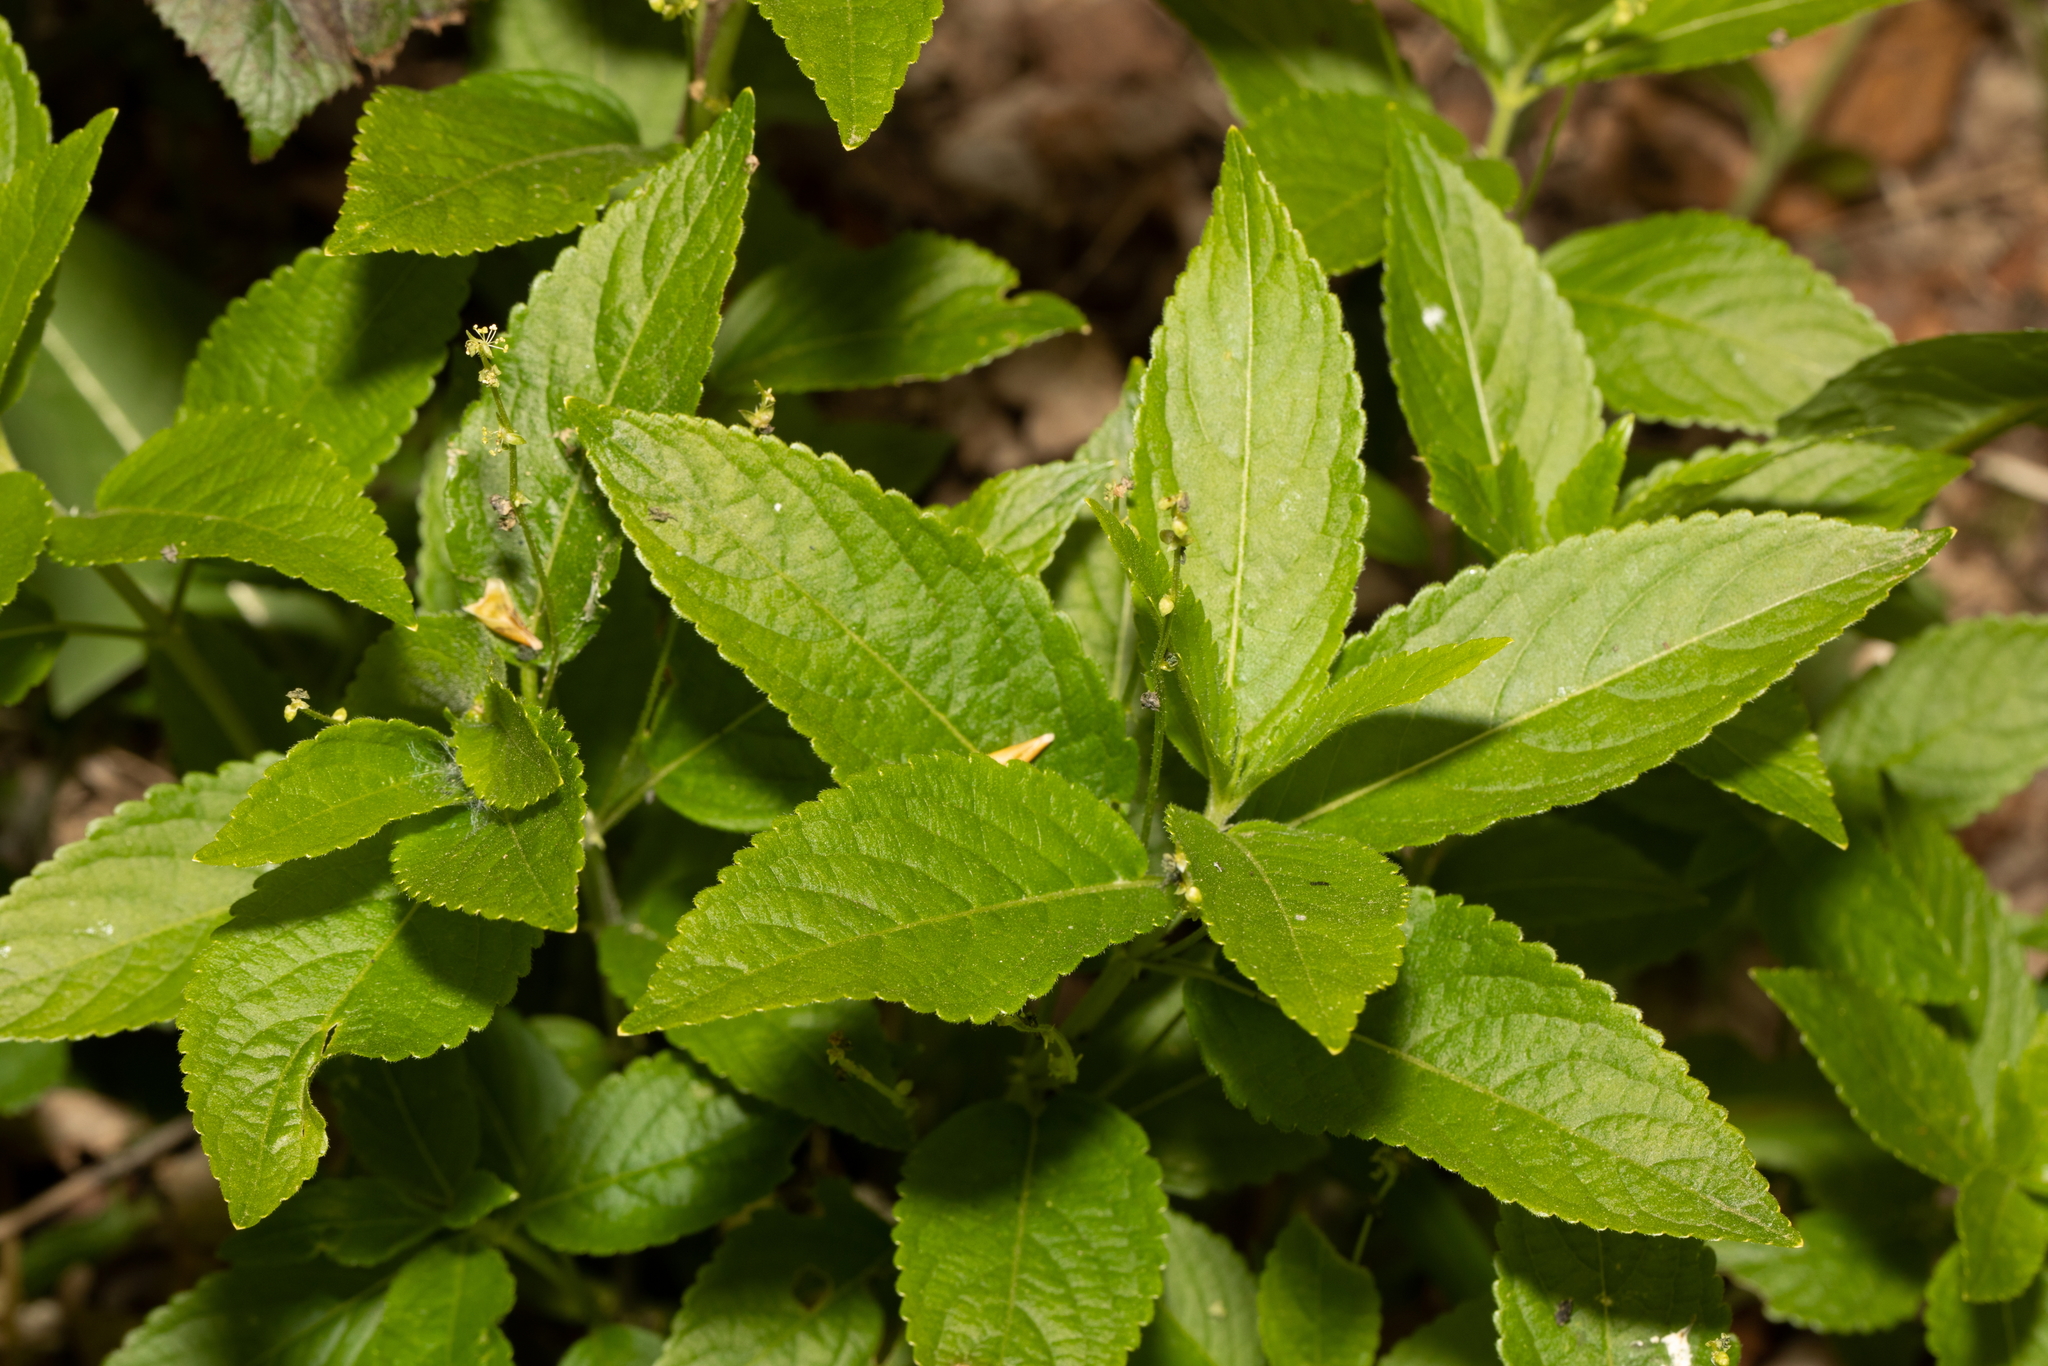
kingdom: Plantae
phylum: Tracheophyta
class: Magnoliopsida
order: Malpighiales
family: Euphorbiaceae
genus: Mercurialis
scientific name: Mercurialis perennis
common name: Dog mercury
